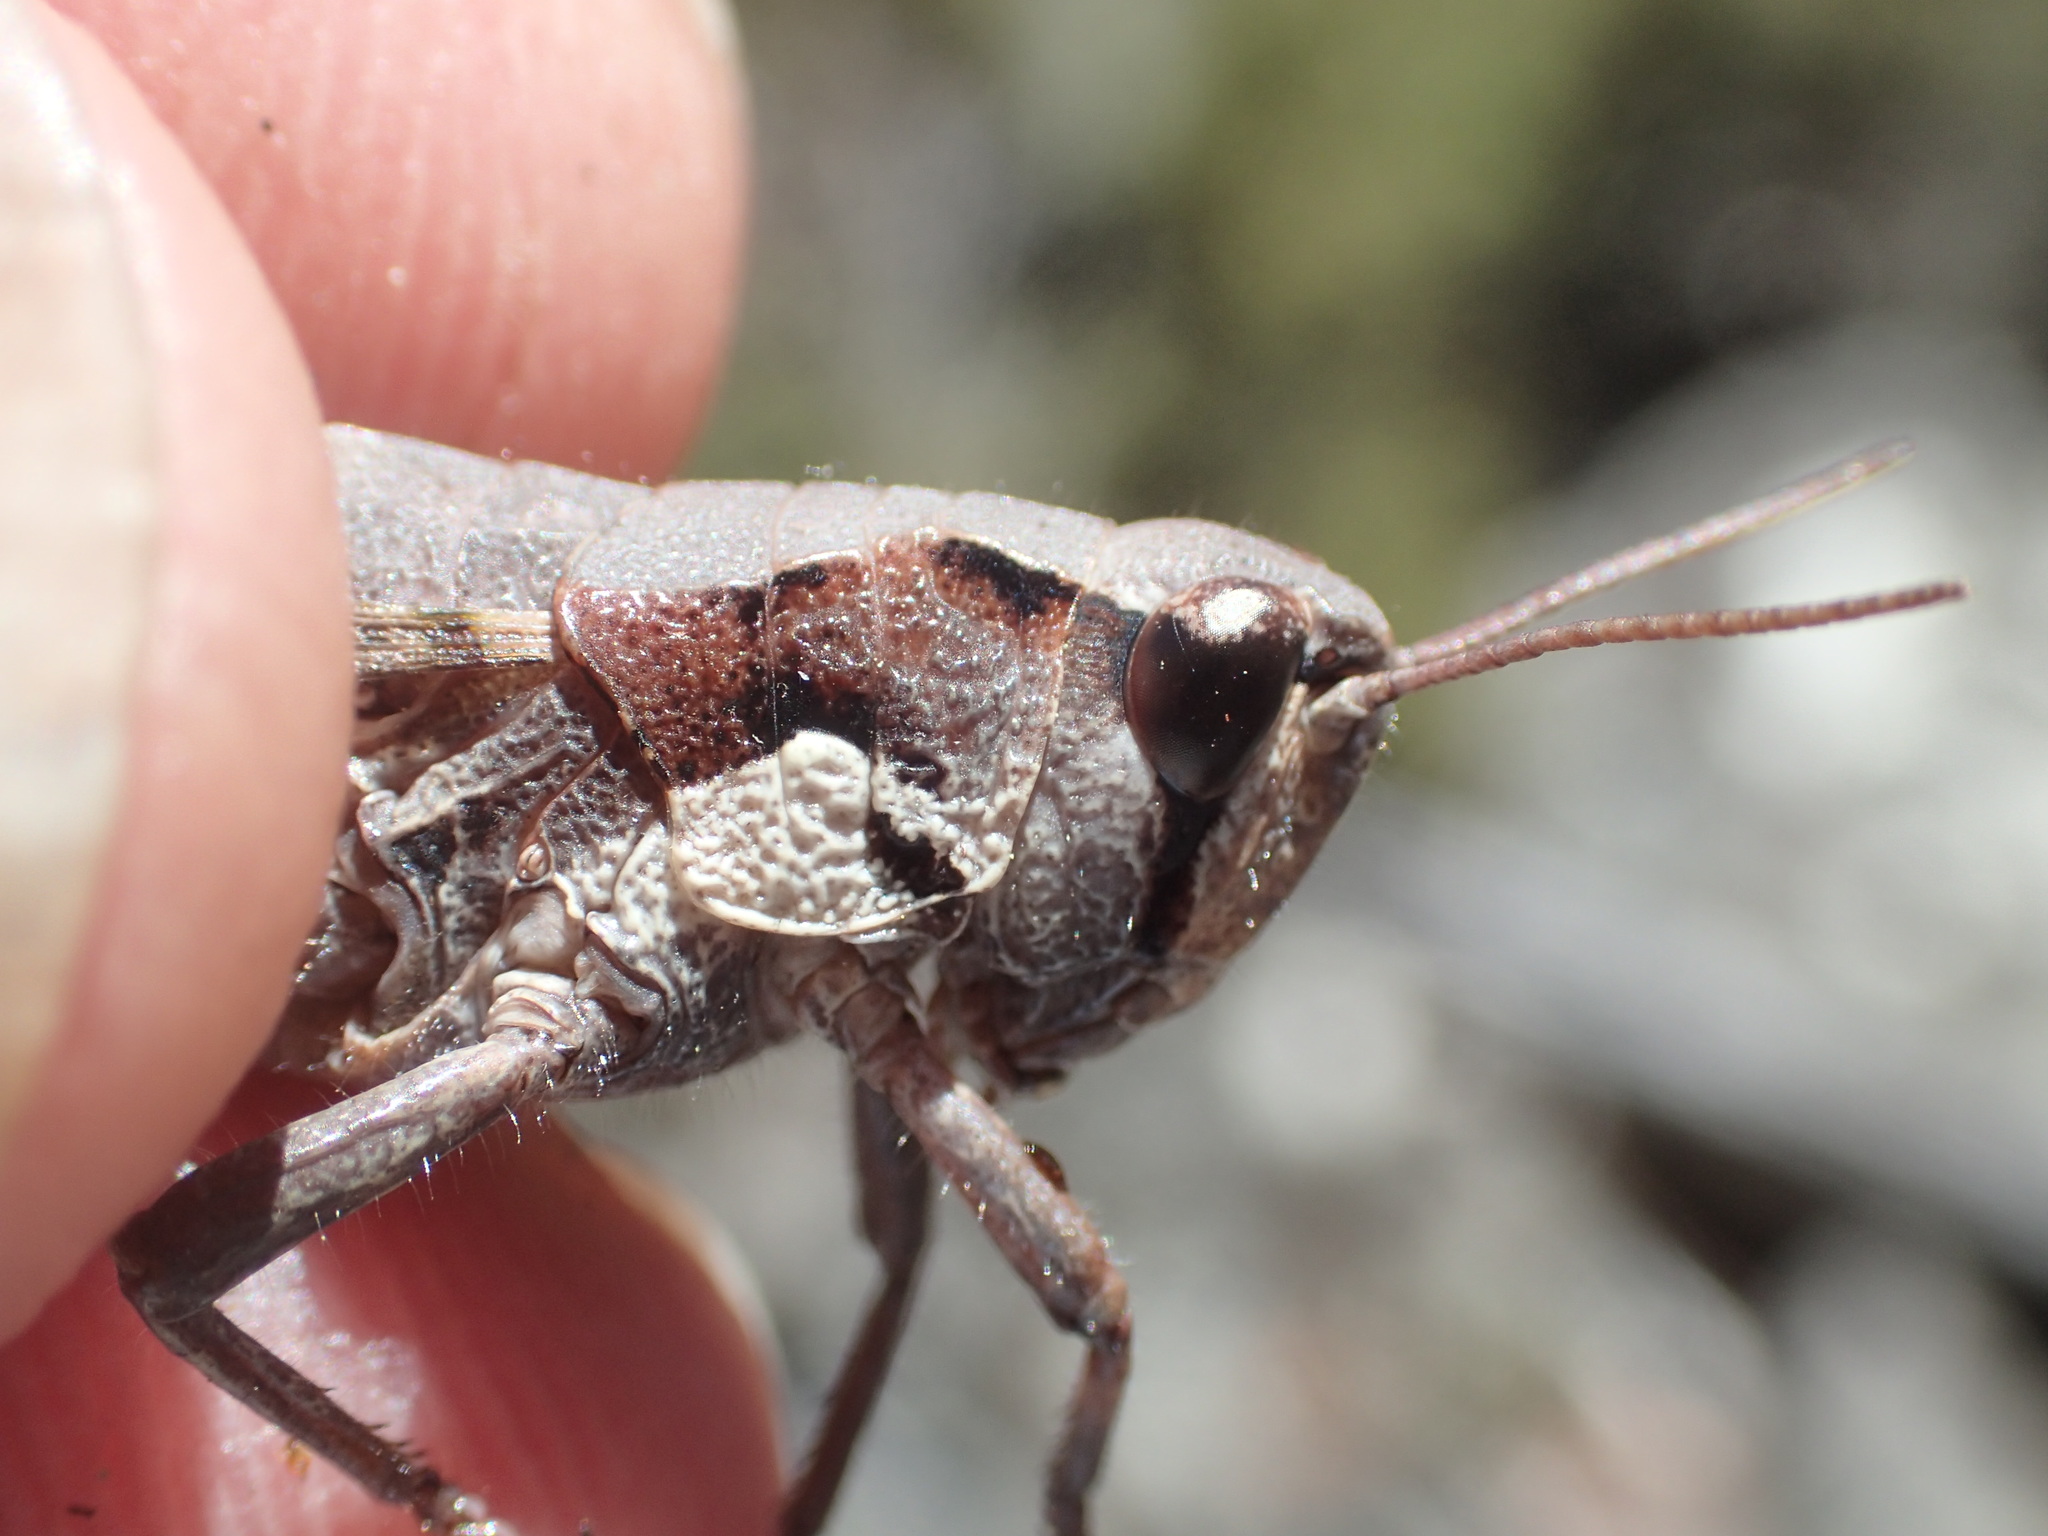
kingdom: Animalia
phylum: Arthropoda
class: Insecta
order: Orthoptera
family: Acrididae
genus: Tasmaniacris
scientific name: Tasmaniacris tasmaniensis
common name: Tasmanian grasshopper
